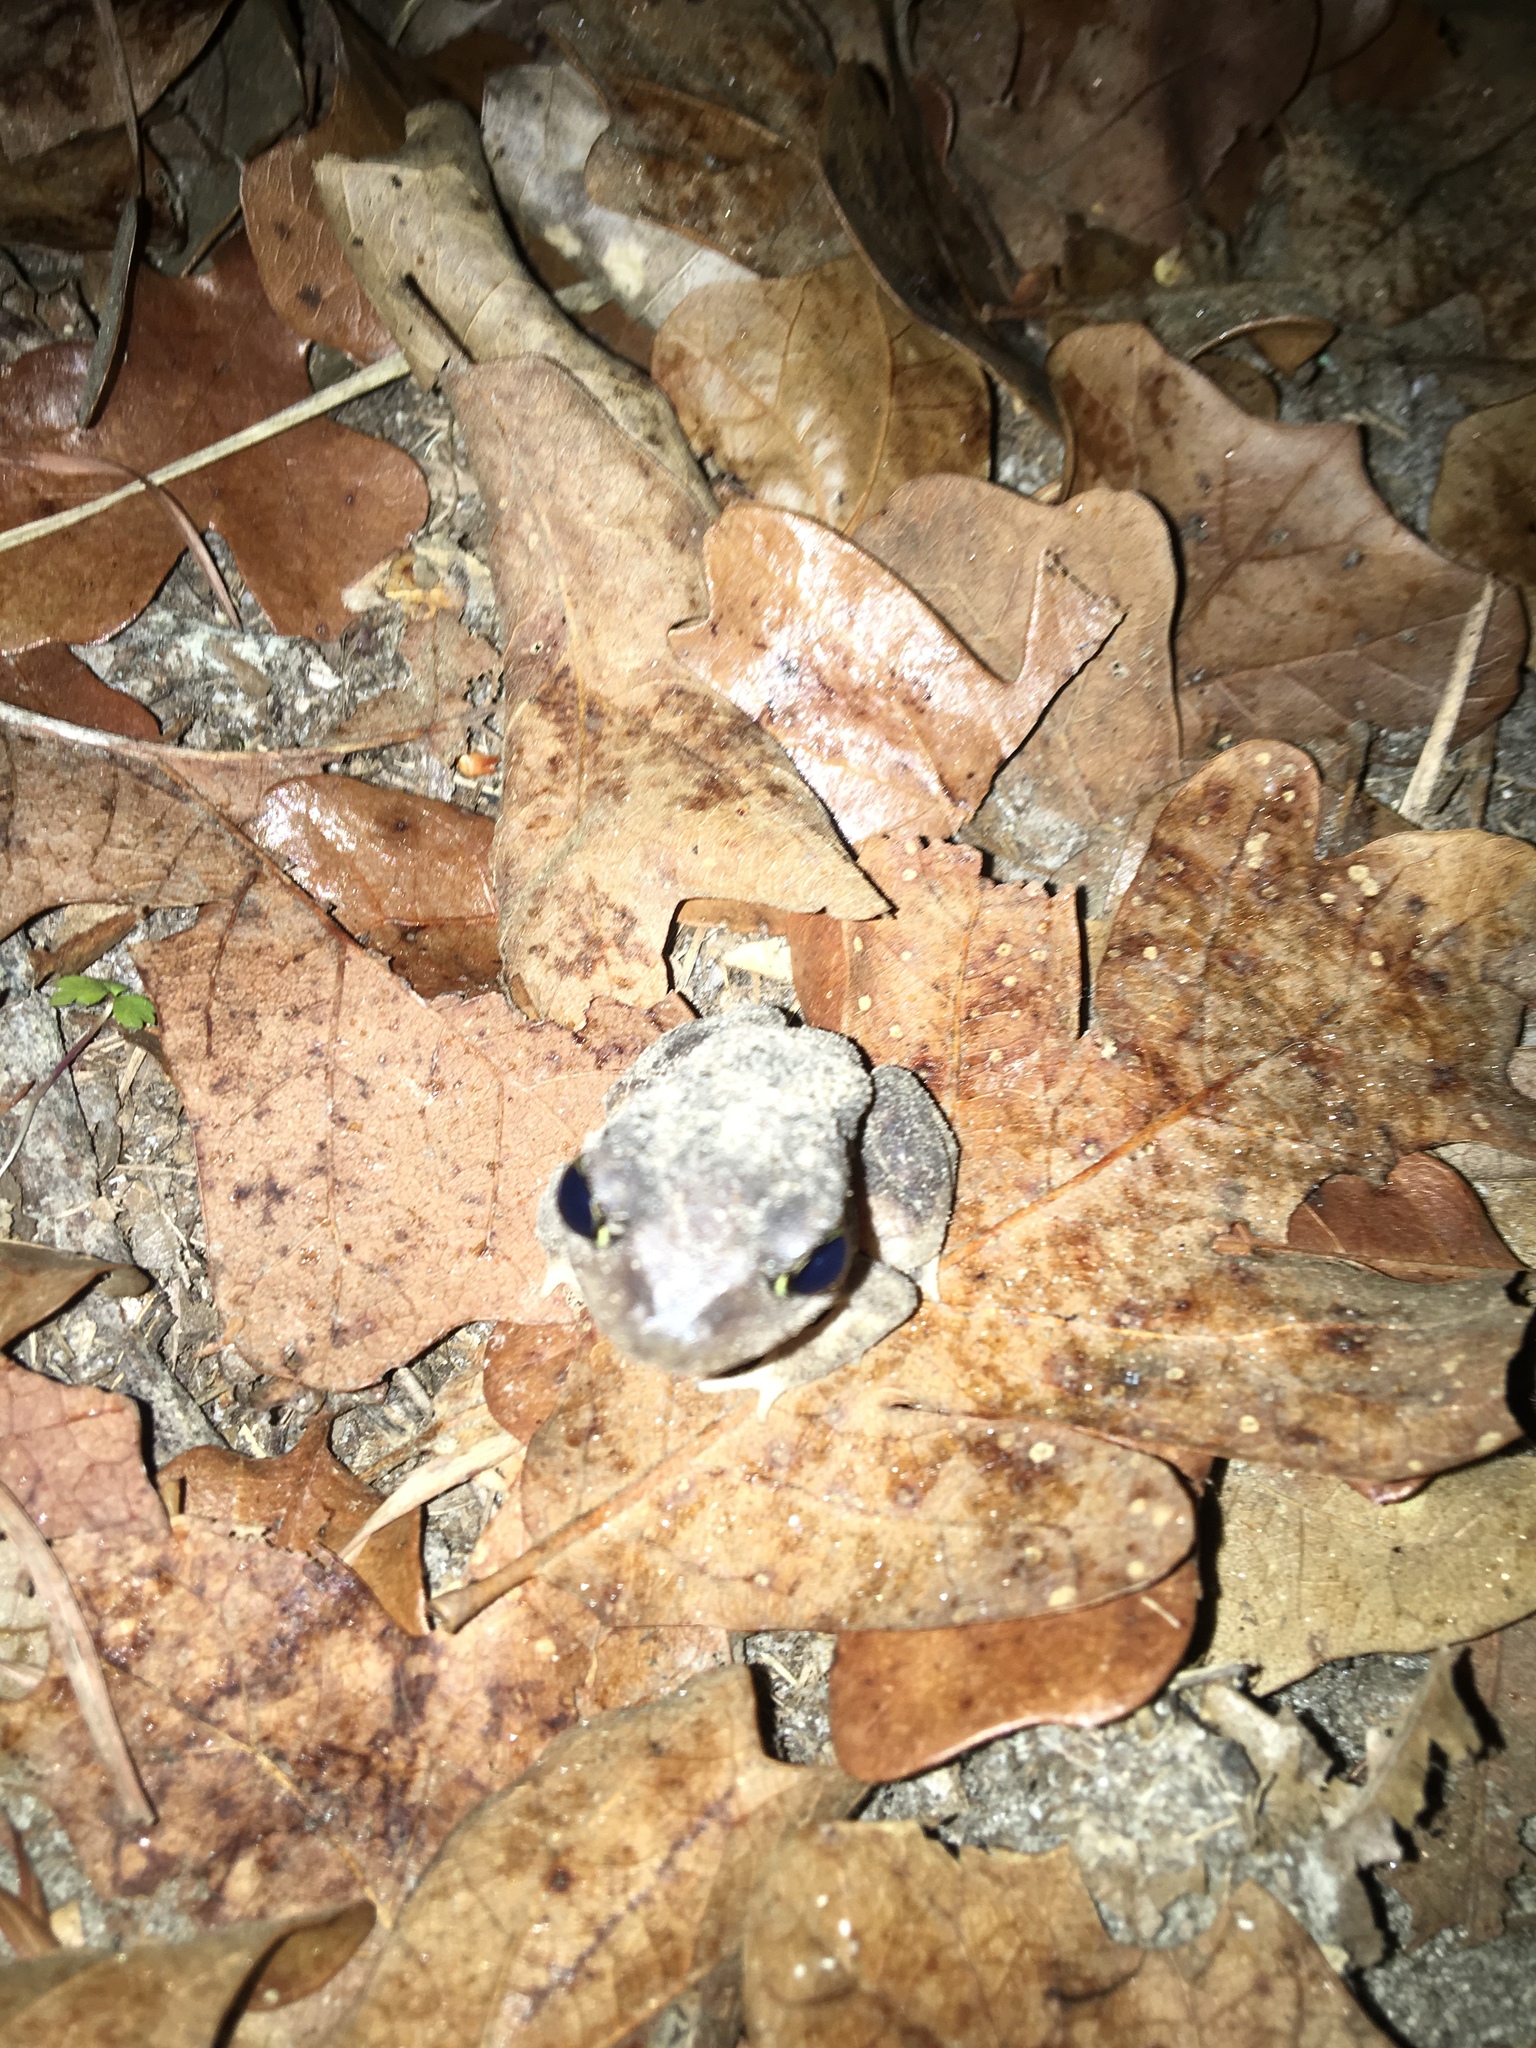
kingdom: Animalia
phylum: Chordata
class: Amphibia
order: Anura
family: Scaphiopodidae
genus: Scaphiopus
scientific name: Scaphiopus hurterii
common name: Hurter's spadefoot toad
